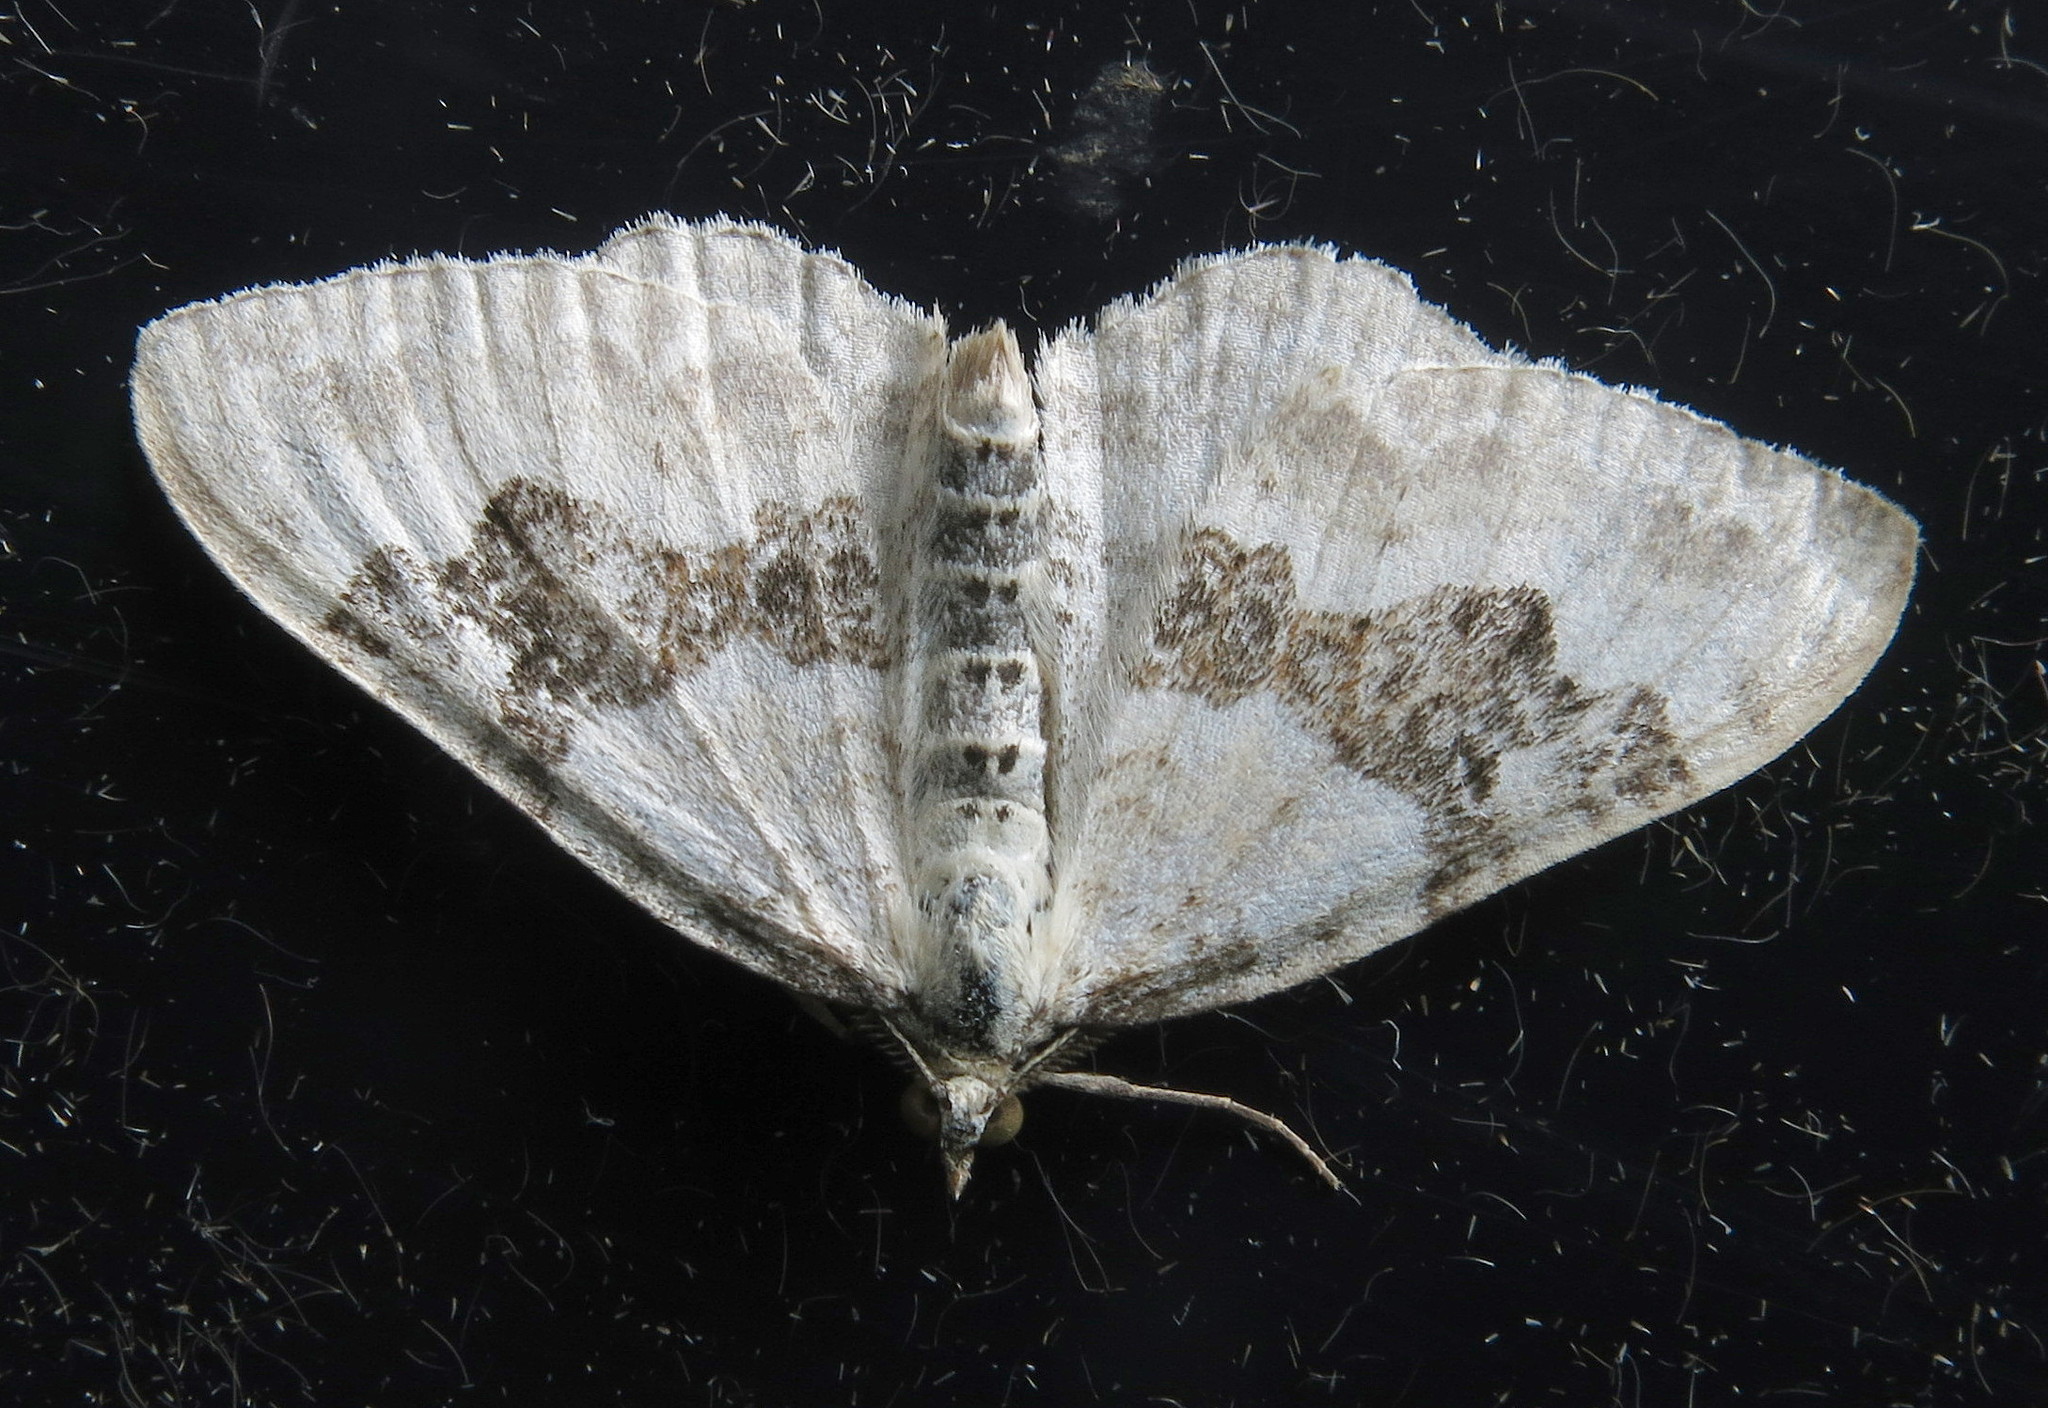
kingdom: Animalia
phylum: Arthropoda
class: Insecta
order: Lepidoptera
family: Geometridae
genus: Xanthorhoe
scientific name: Xanthorhoe montanata
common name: Silver-ground carpet
